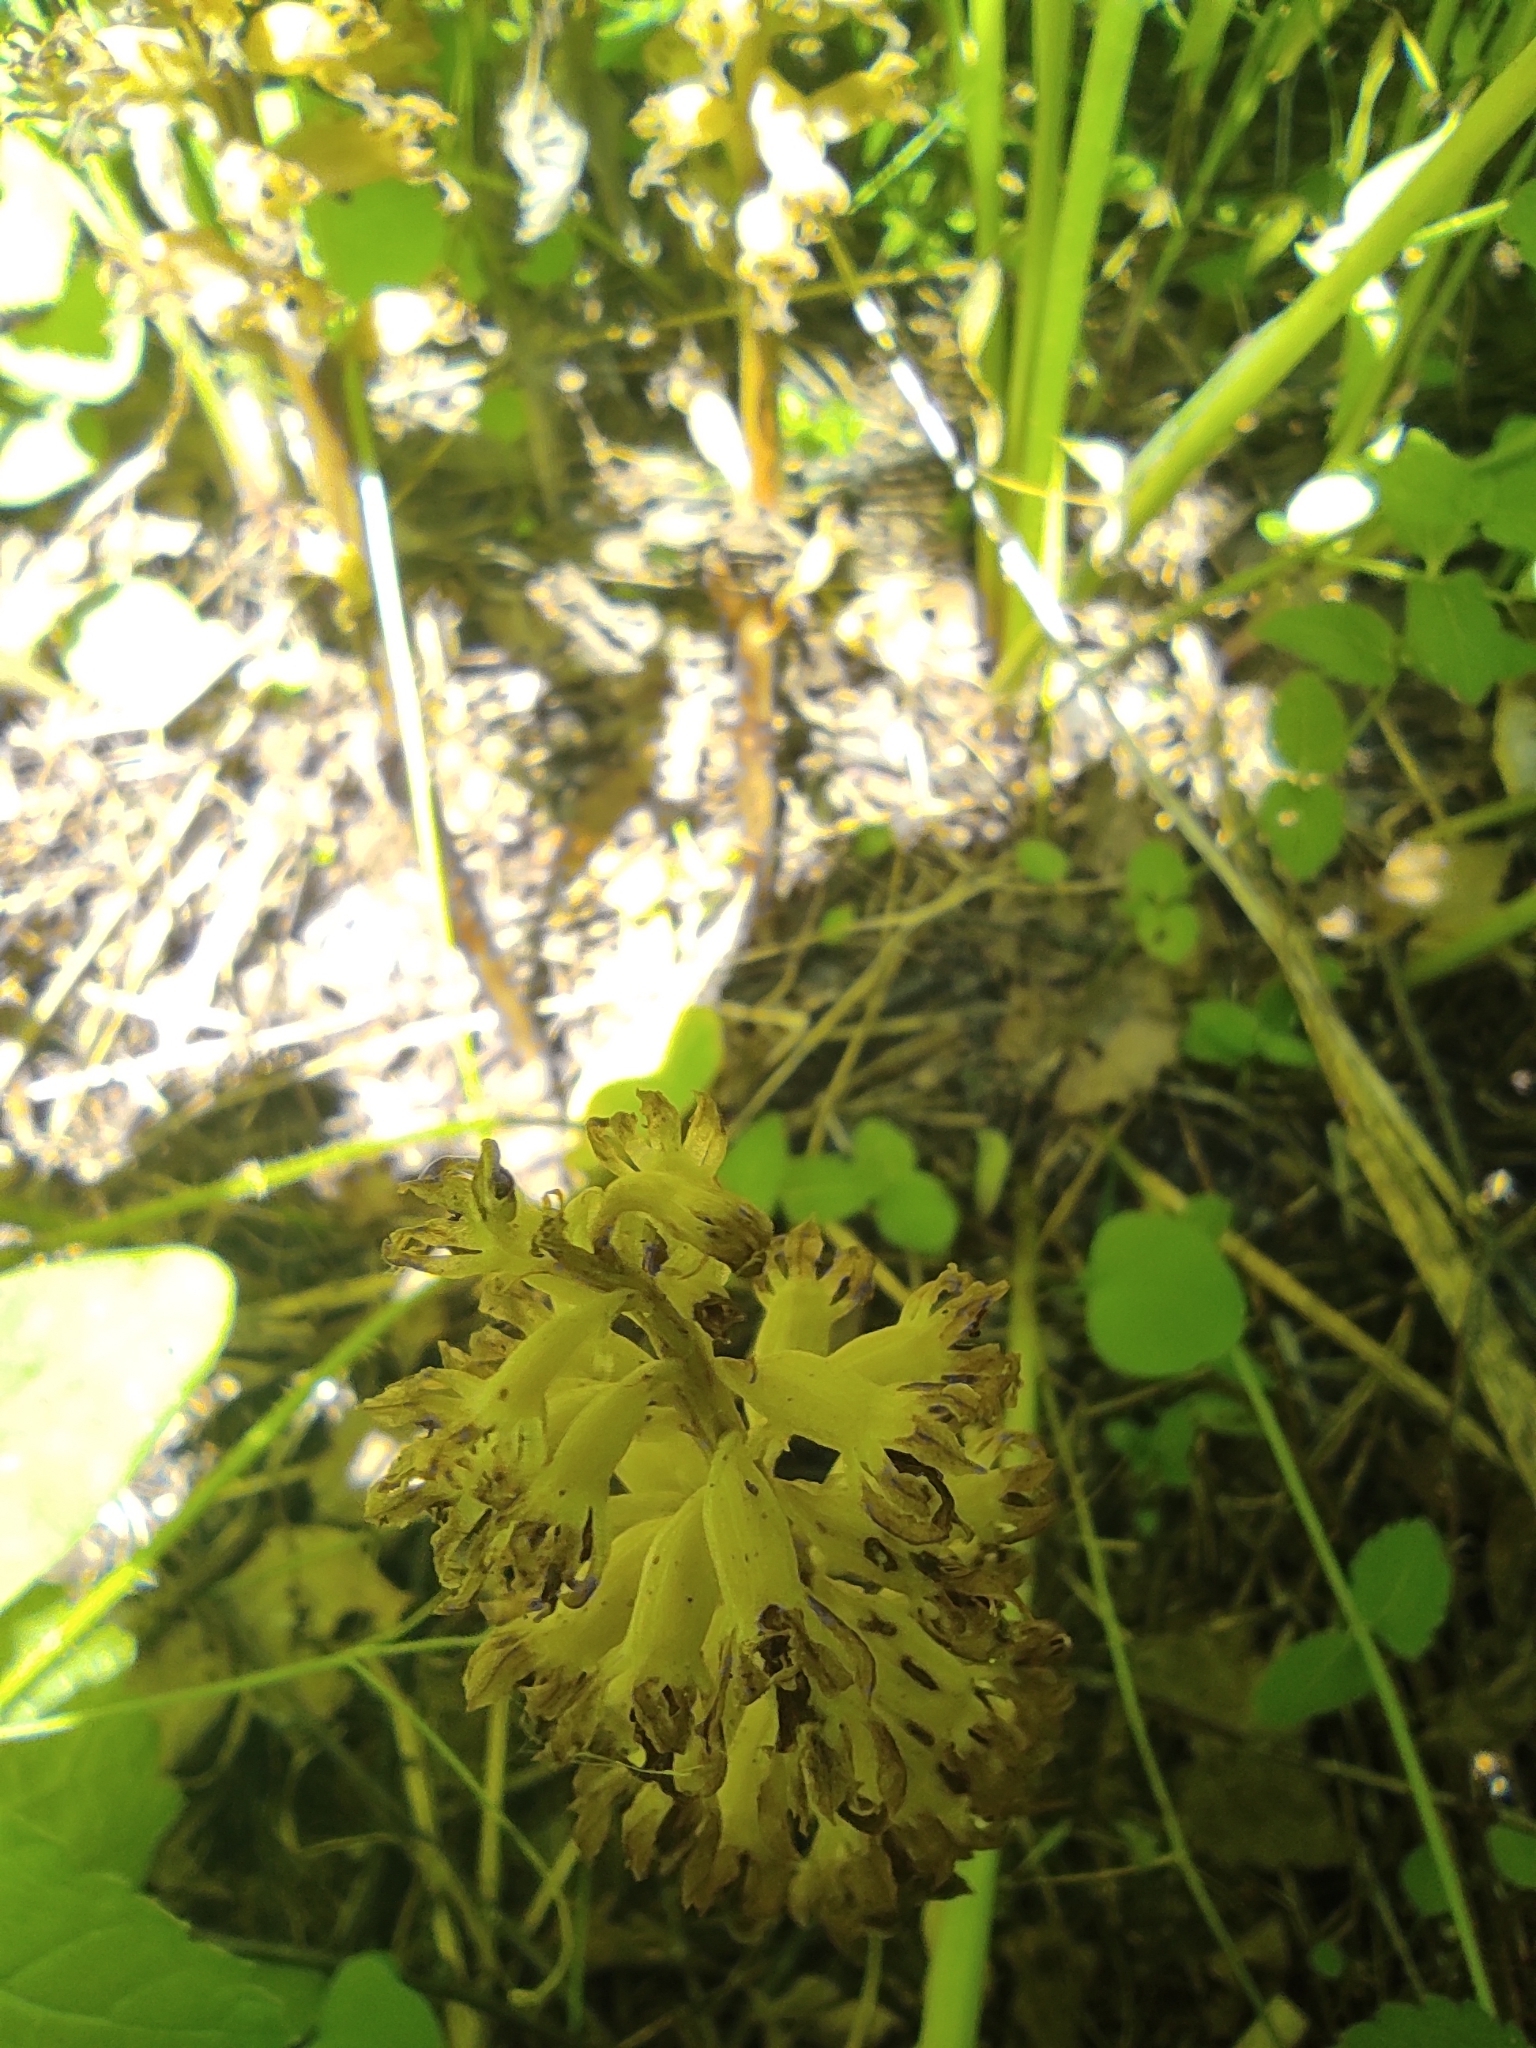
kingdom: Plantae
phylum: Tracheophyta
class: Liliopsida
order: Asparagales
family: Orchidaceae
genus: Neottia
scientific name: Neottia nidus-avis
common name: Bird's-nest orchid
